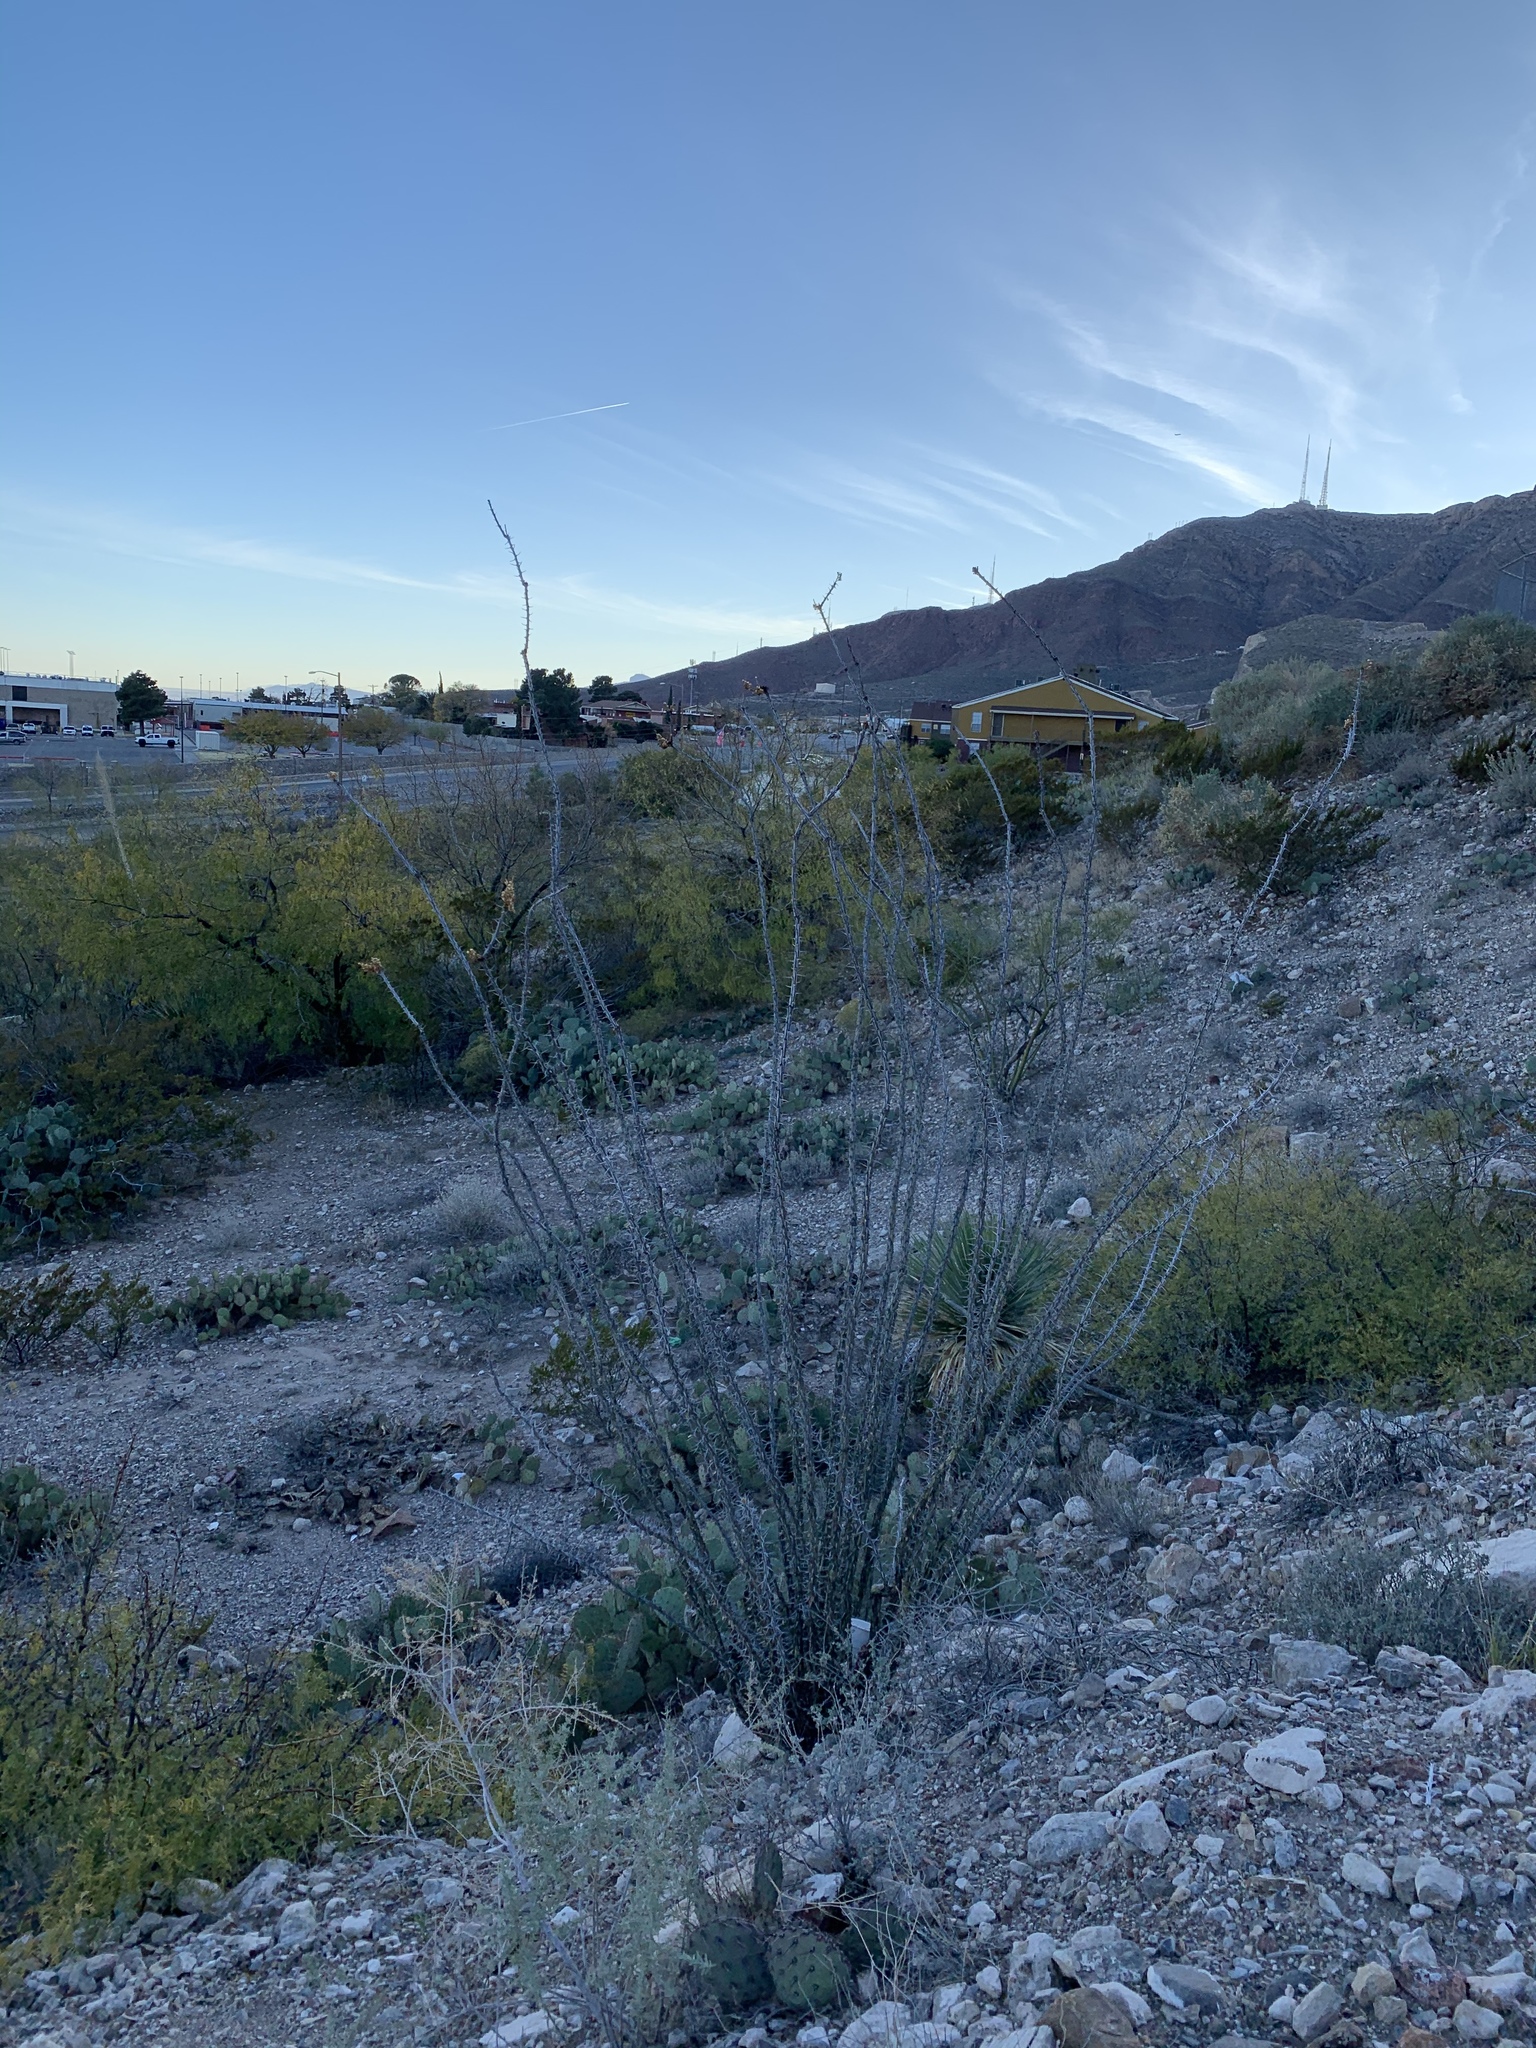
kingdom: Plantae
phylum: Tracheophyta
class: Magnoliopsida
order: Ericales
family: Fouquieriaceae
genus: Fouquieria
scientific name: Fouquieria splendens
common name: Vine-cactus
